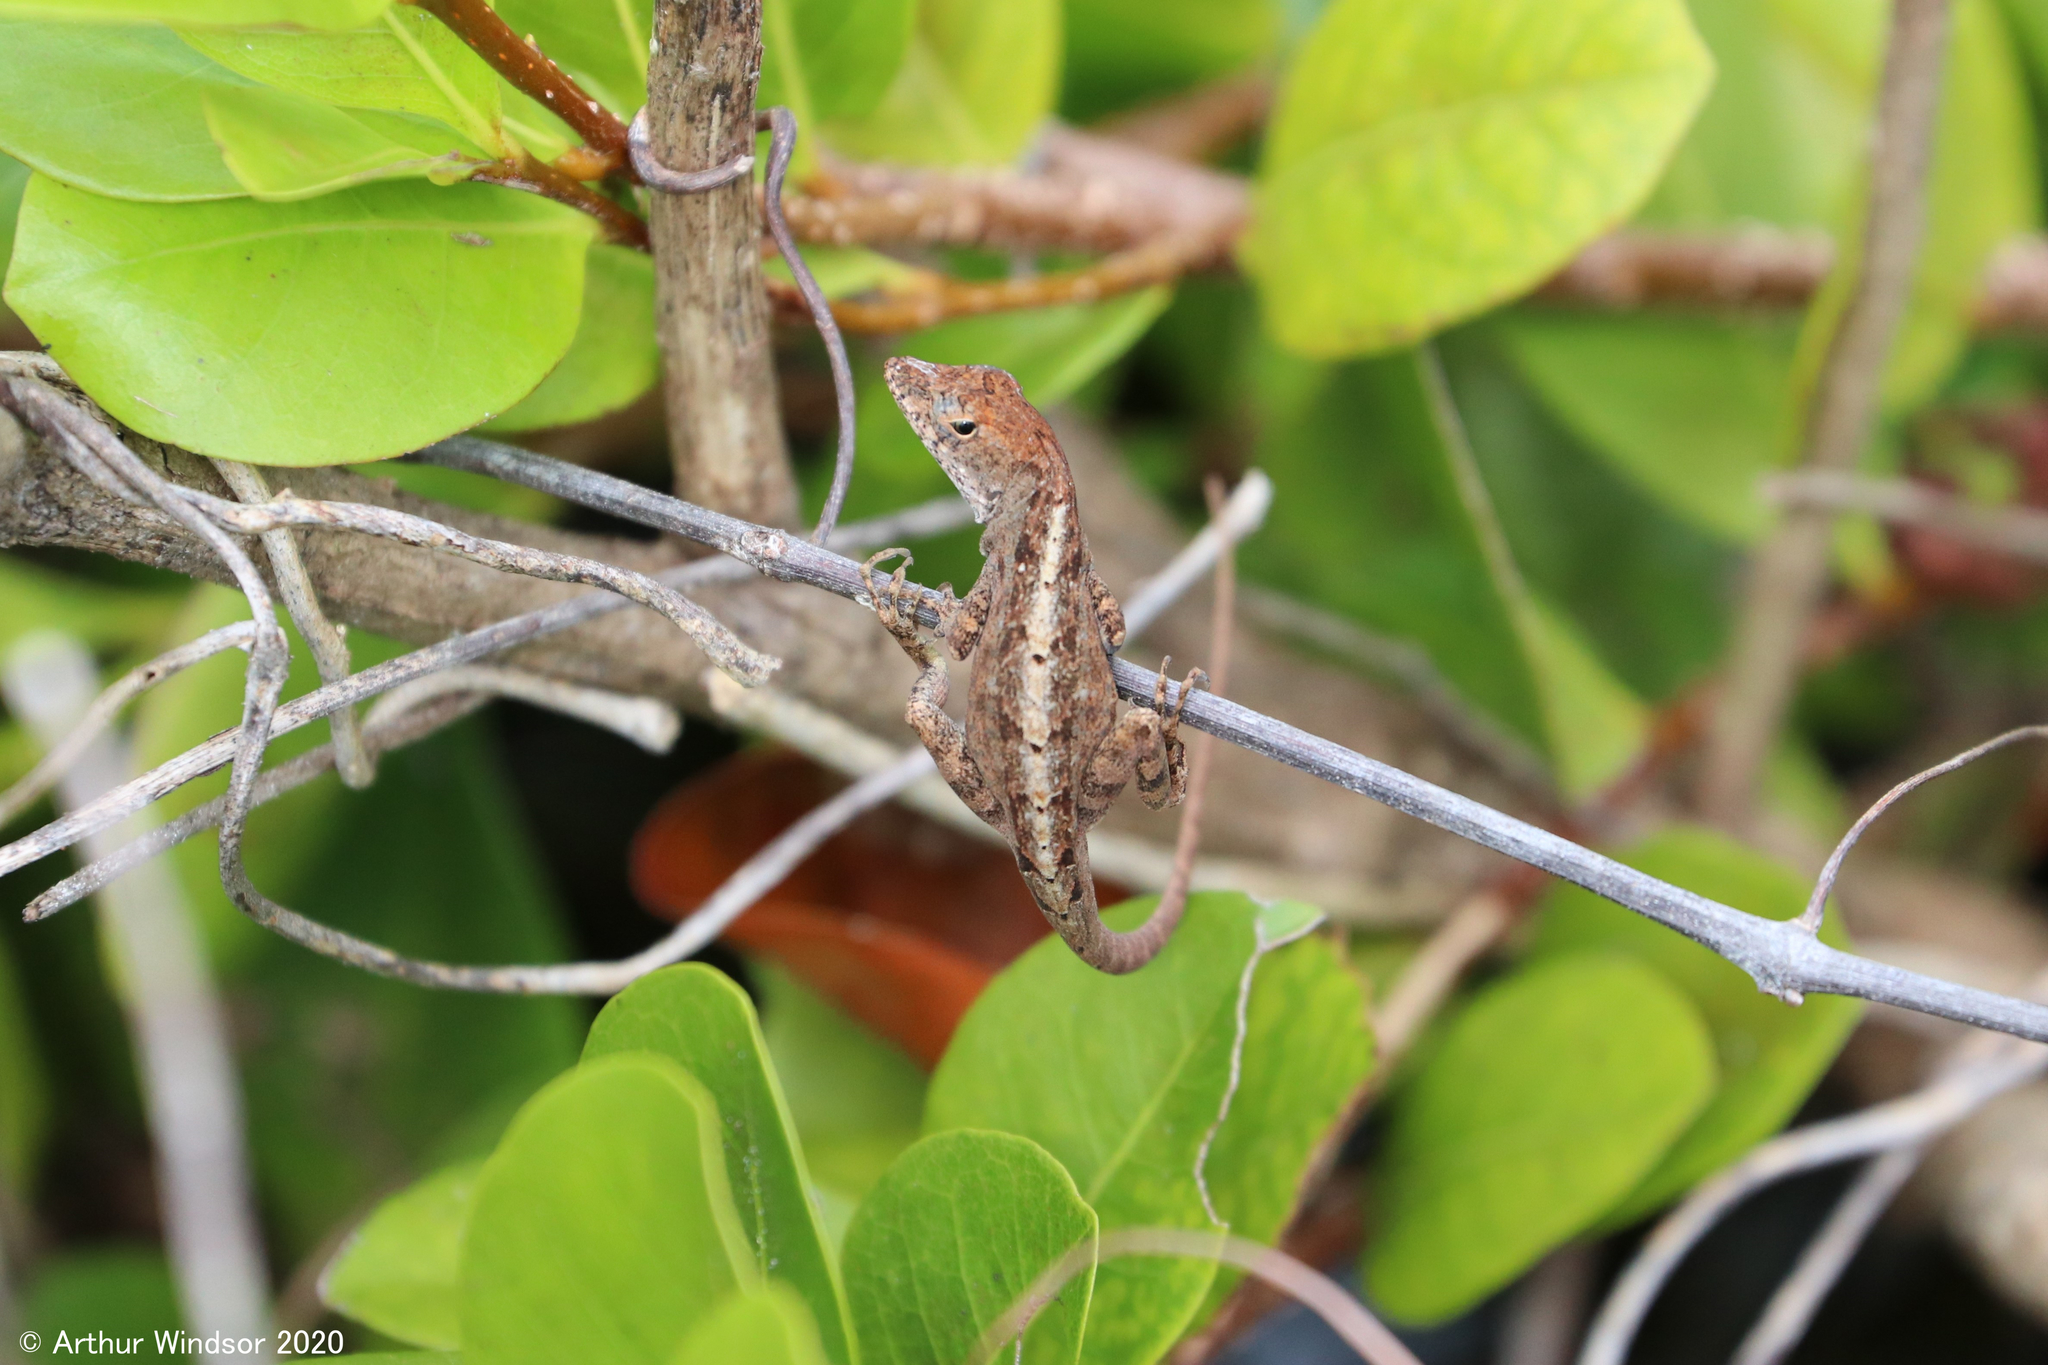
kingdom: Animalia
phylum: Chordata
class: Squamata
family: Dactyloidae
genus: Anolis
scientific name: Anolis sagrei
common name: Brown anole
